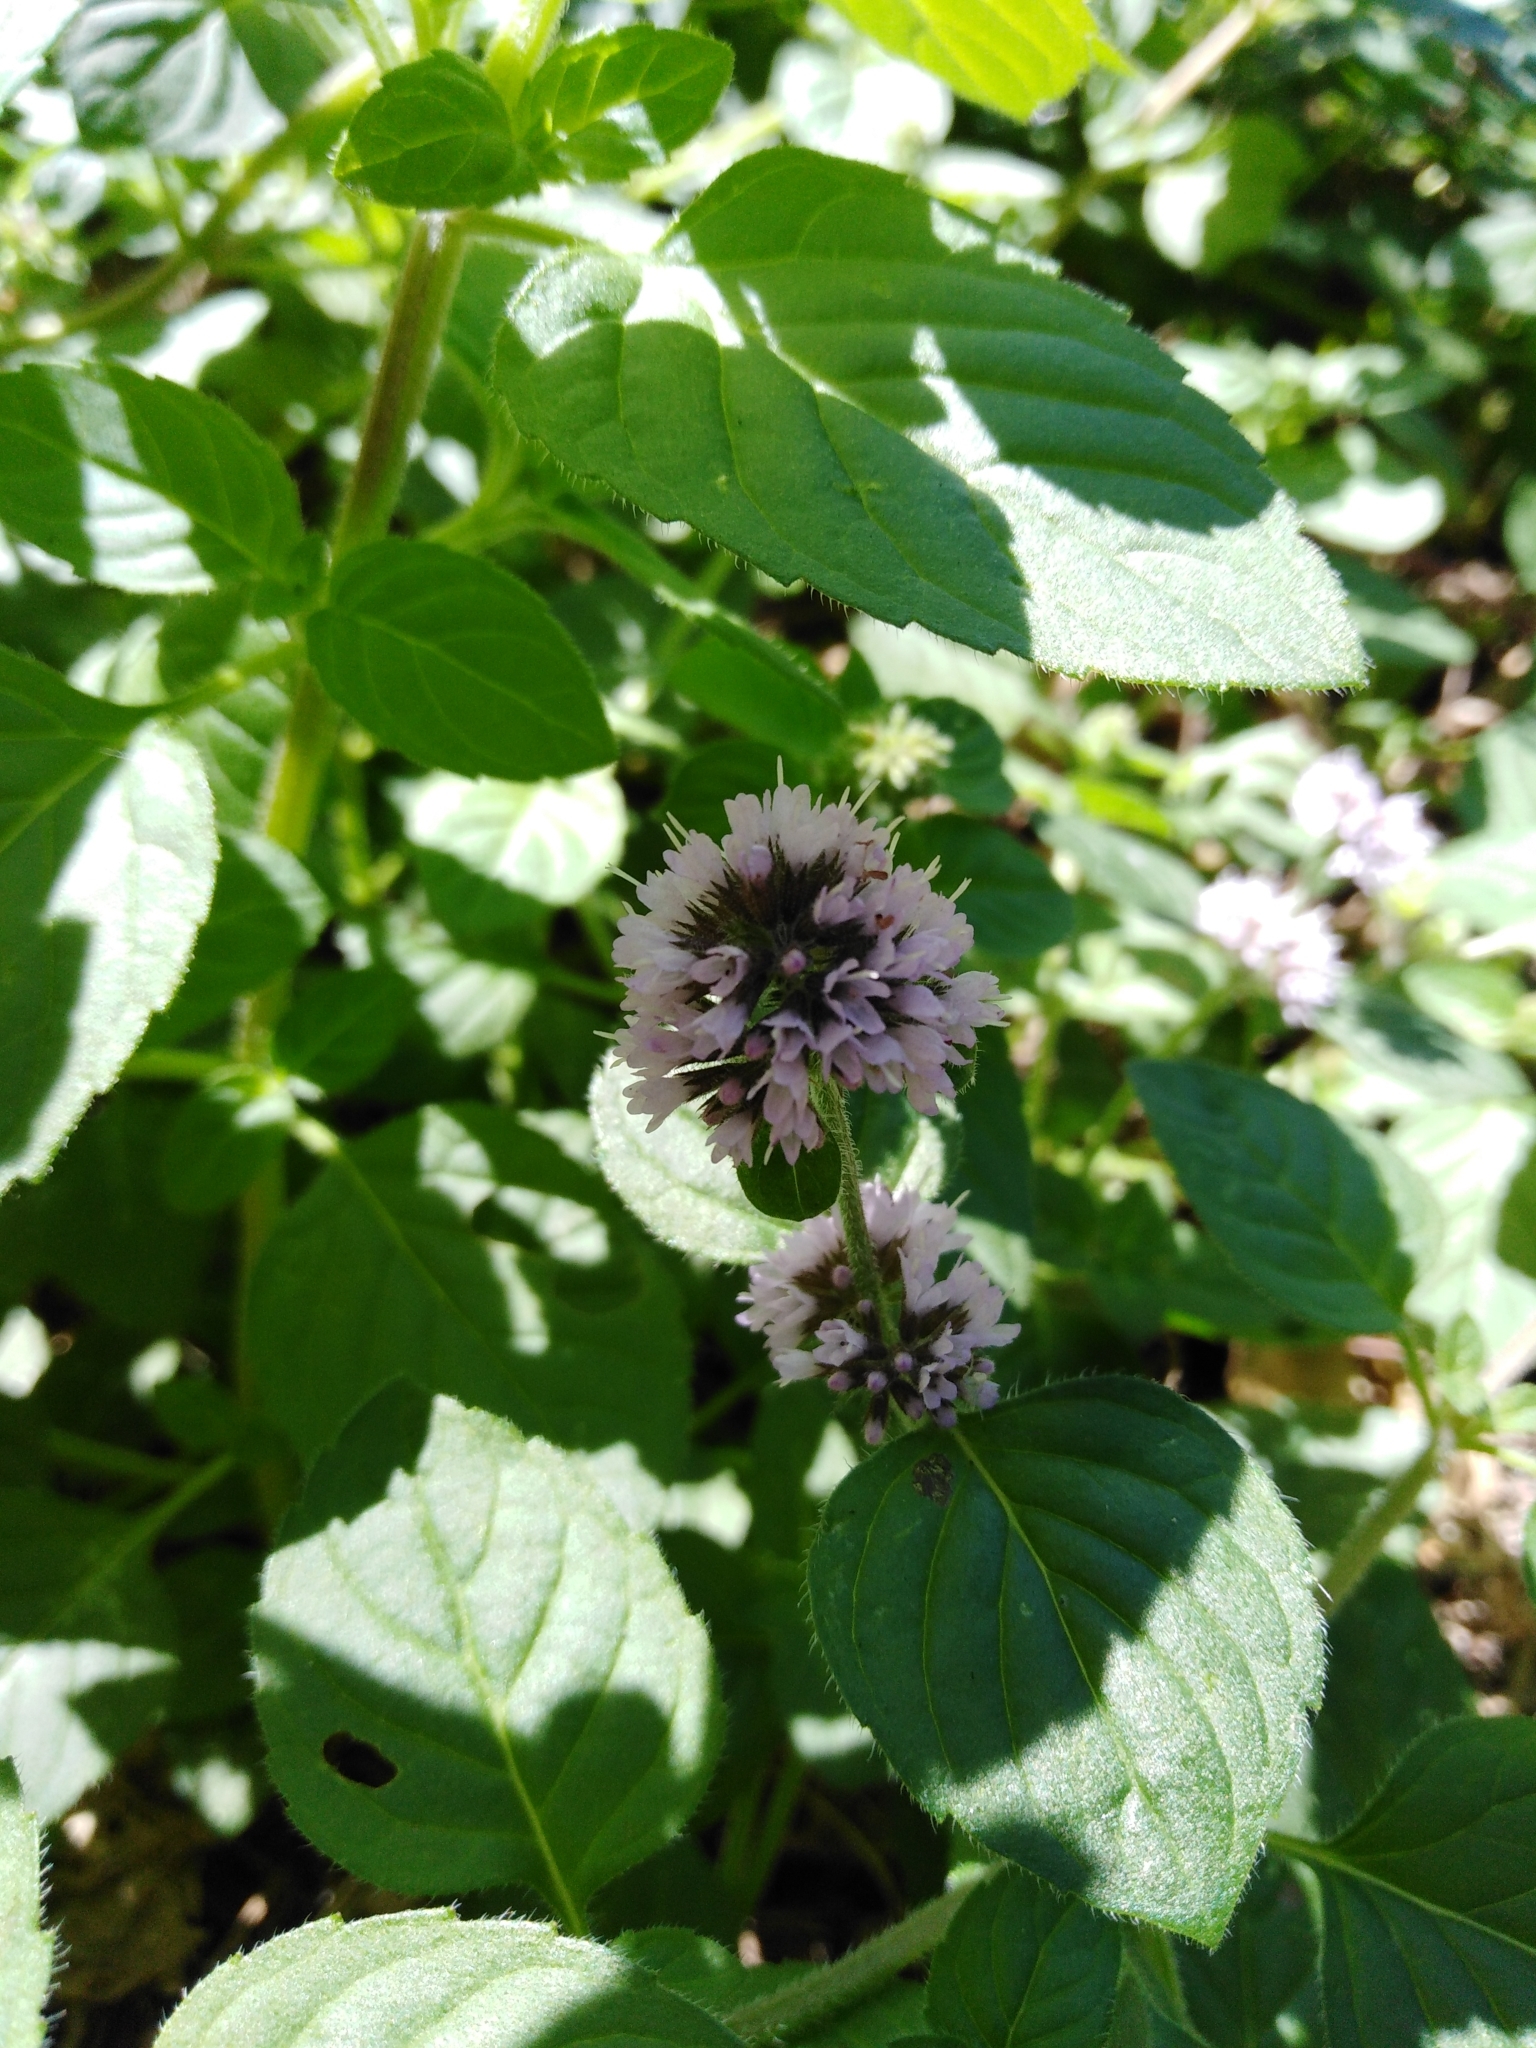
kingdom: Plantae
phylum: Tracheophyta
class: Magnoliopsida
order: Lamiales
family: Lamiaceae
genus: Mentha
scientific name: Mentha aquatica
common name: Water mint
